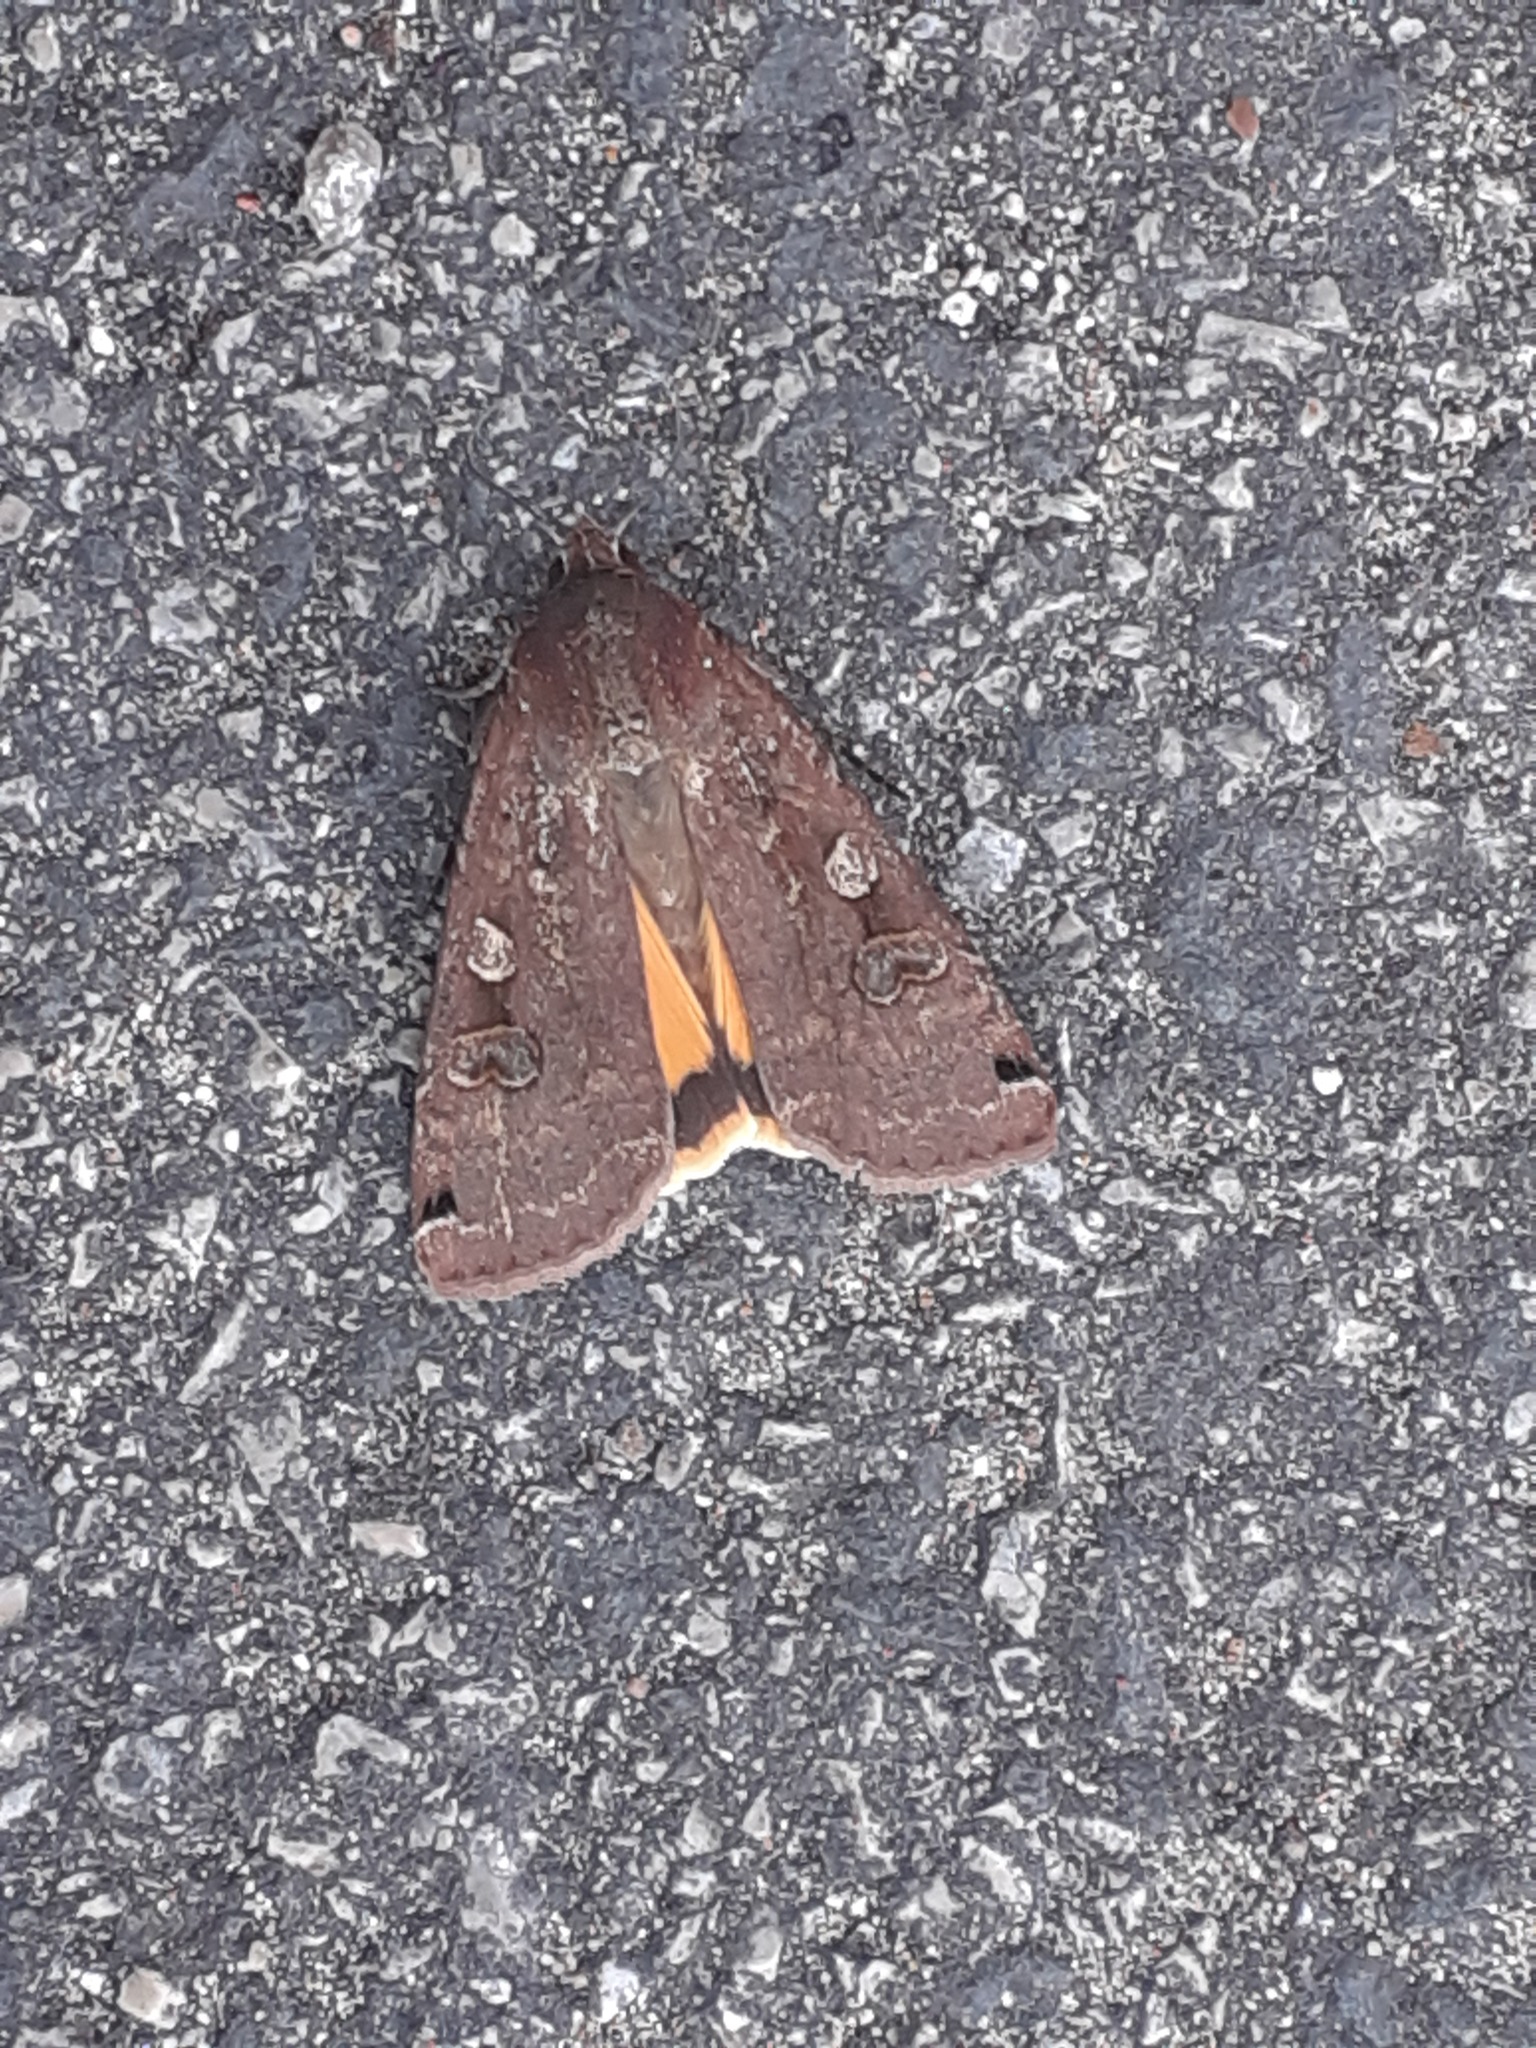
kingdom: Animalia
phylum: Arthropoda
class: Insecta
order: Lepidoptera
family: Noctuidae
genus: Noctua
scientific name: Noctua pronuba
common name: Large yellow underwing
